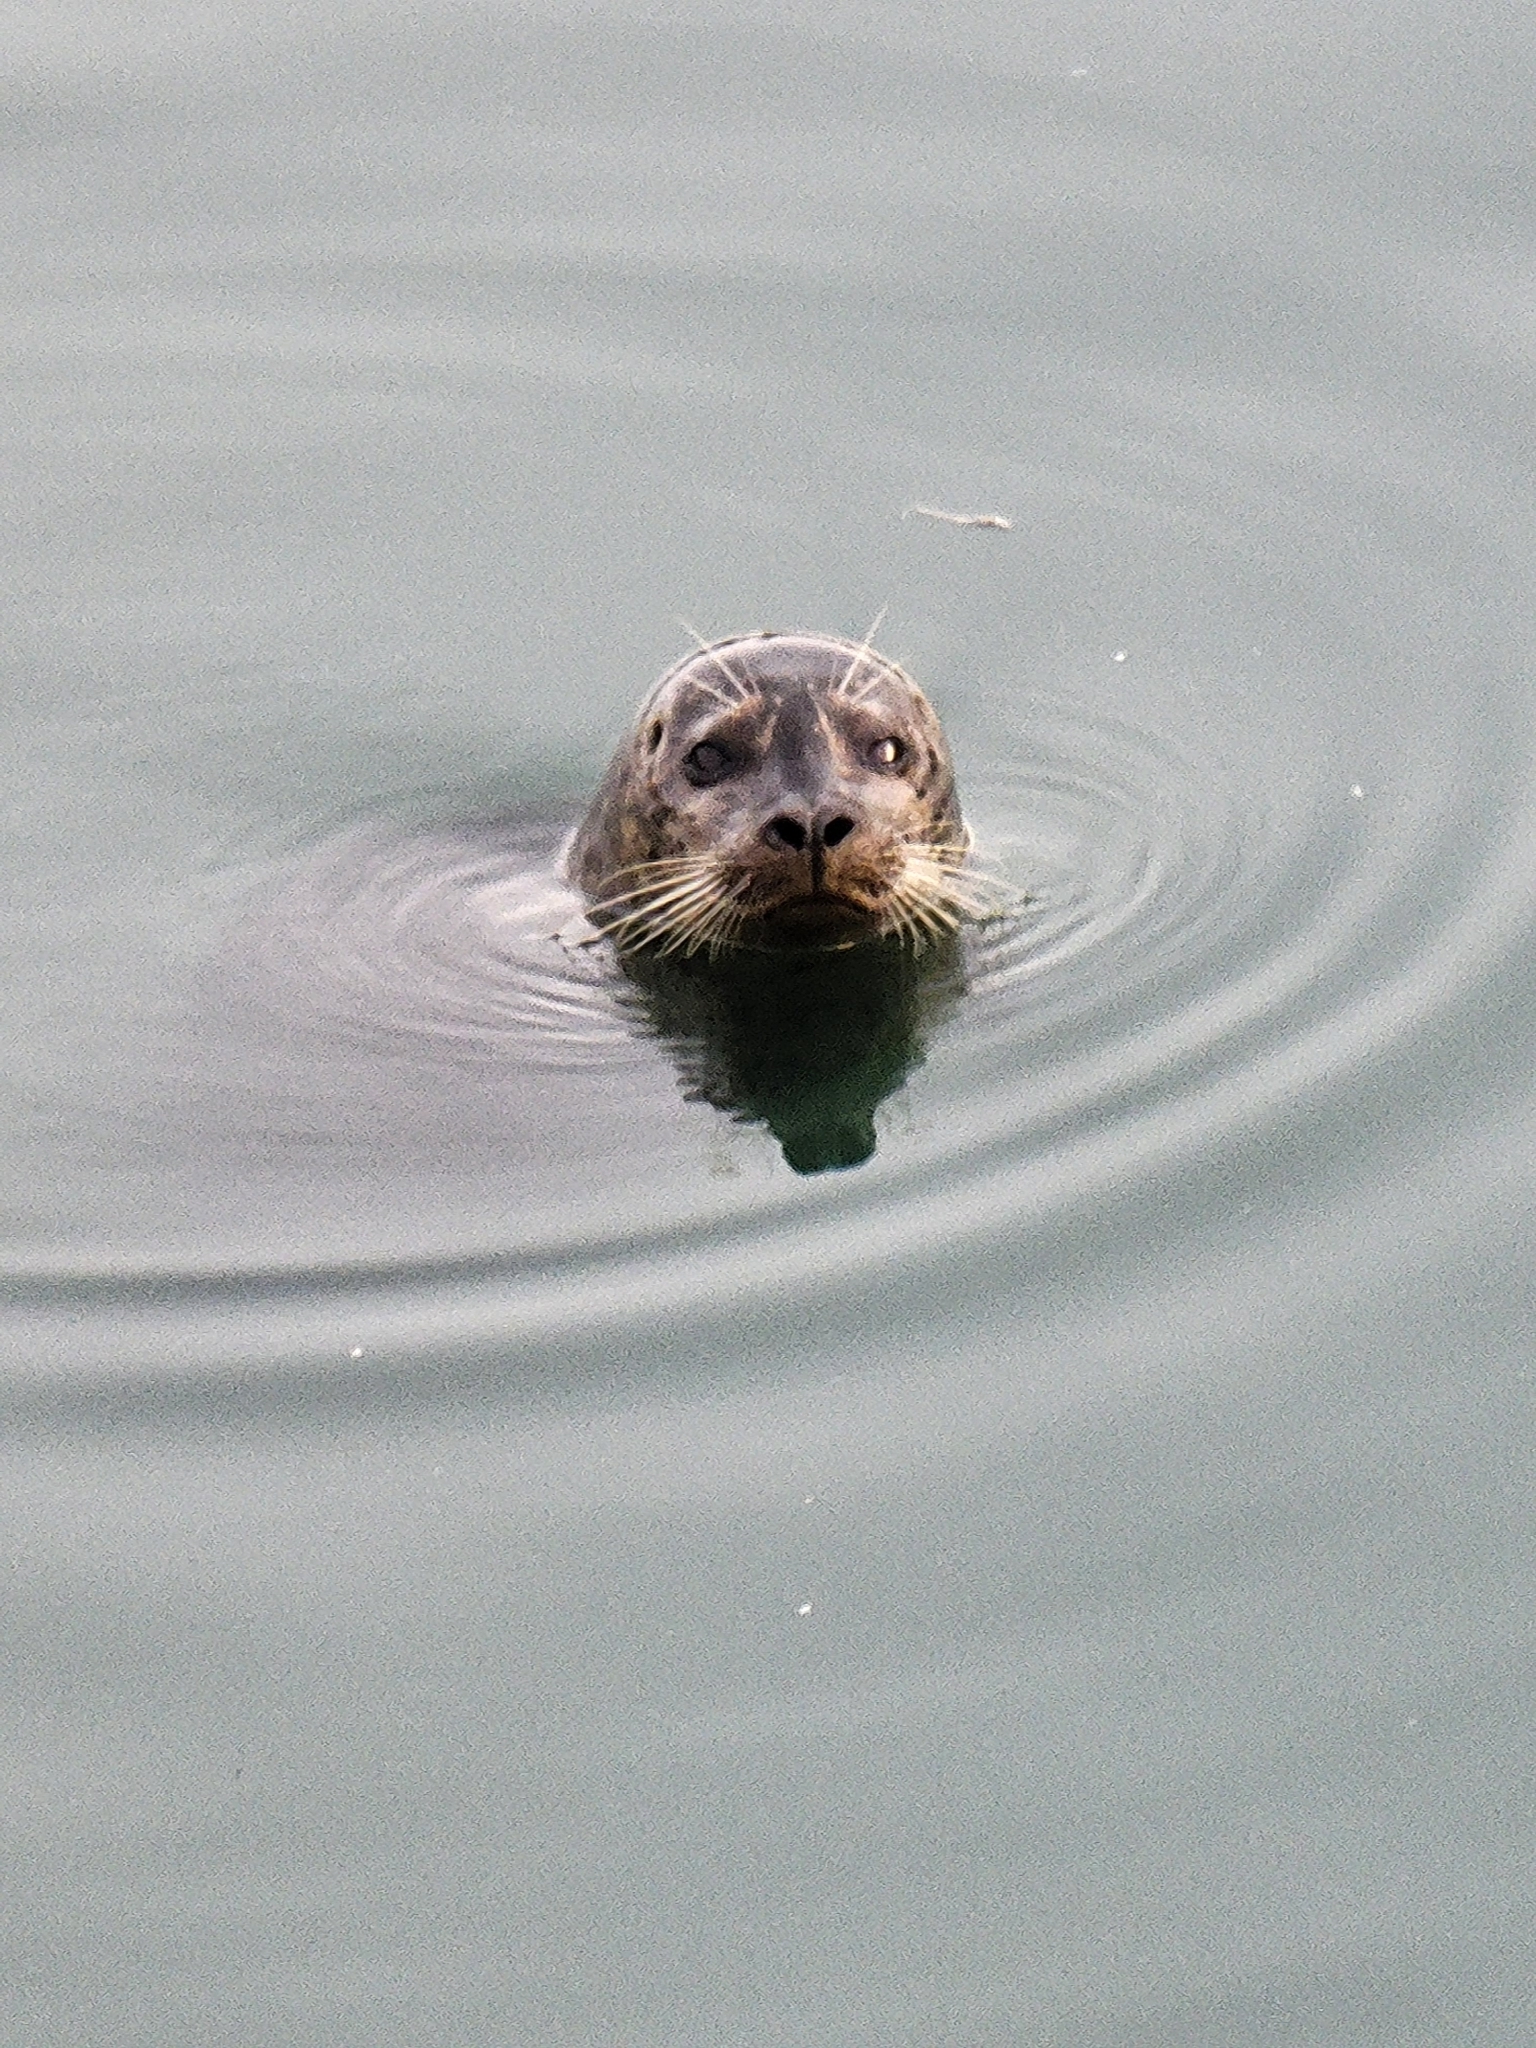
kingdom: Animalia
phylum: Chordata
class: Mammalia
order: Carnivora
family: Phocidae
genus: Phoca
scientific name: Phoca vitulina
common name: Harbor seal
